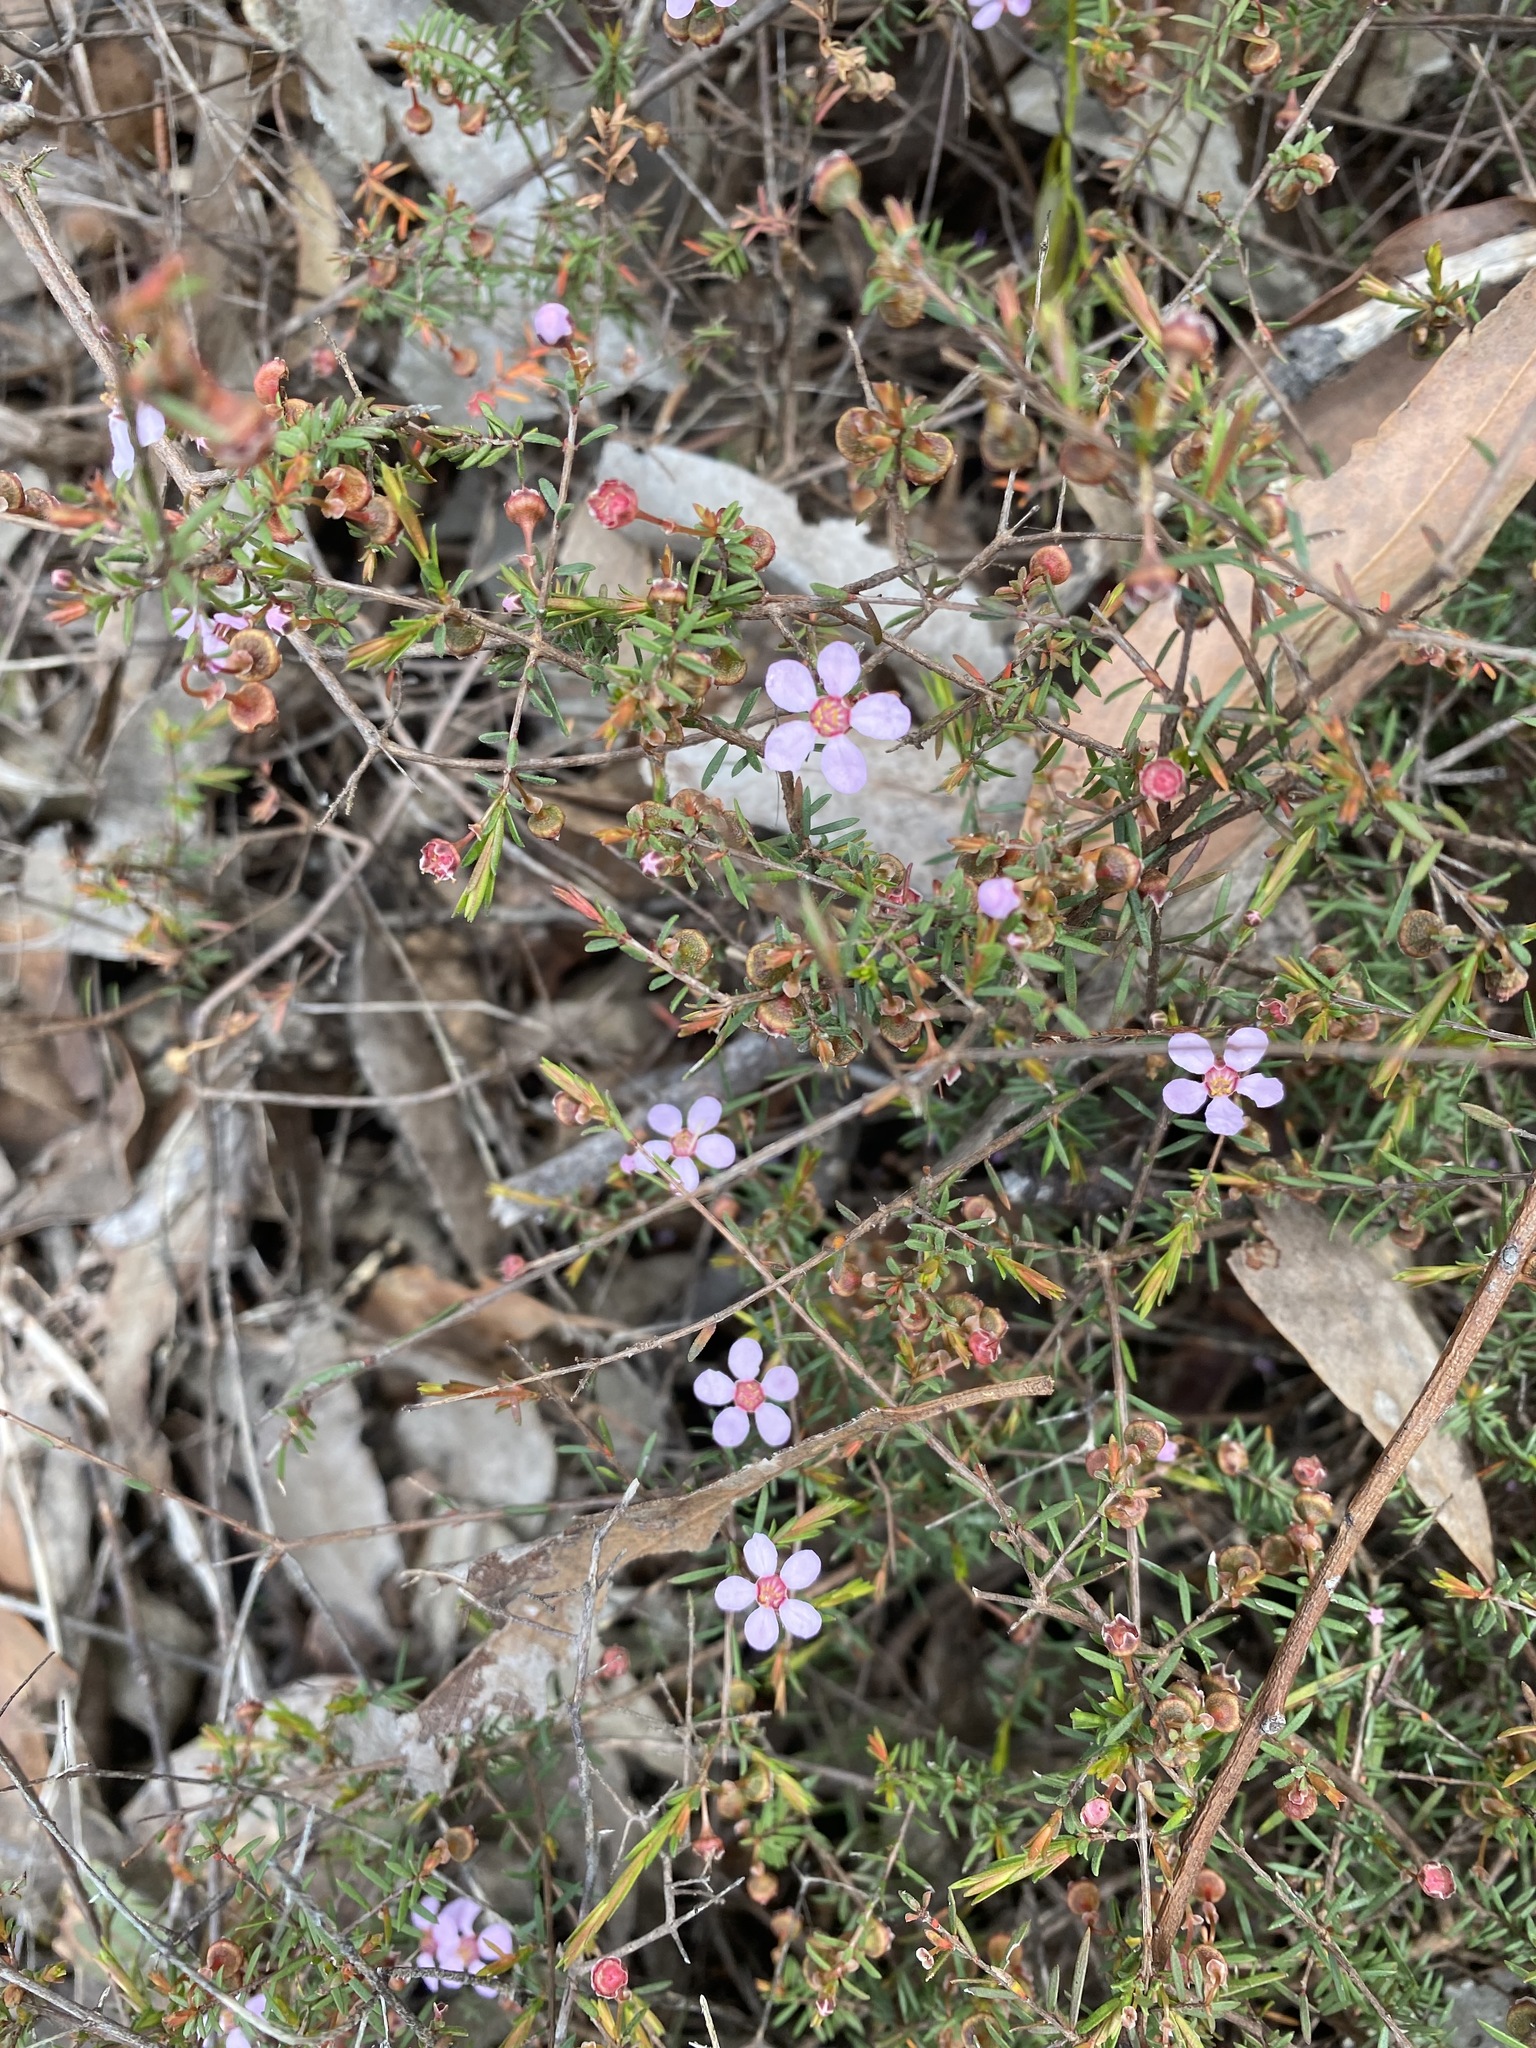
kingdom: Plantae
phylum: Tracheophyta
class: Magnoliopsida
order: Myrtales
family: Myrtaceae
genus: Euryomyrtus
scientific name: Euryomyrtus ramosissima
